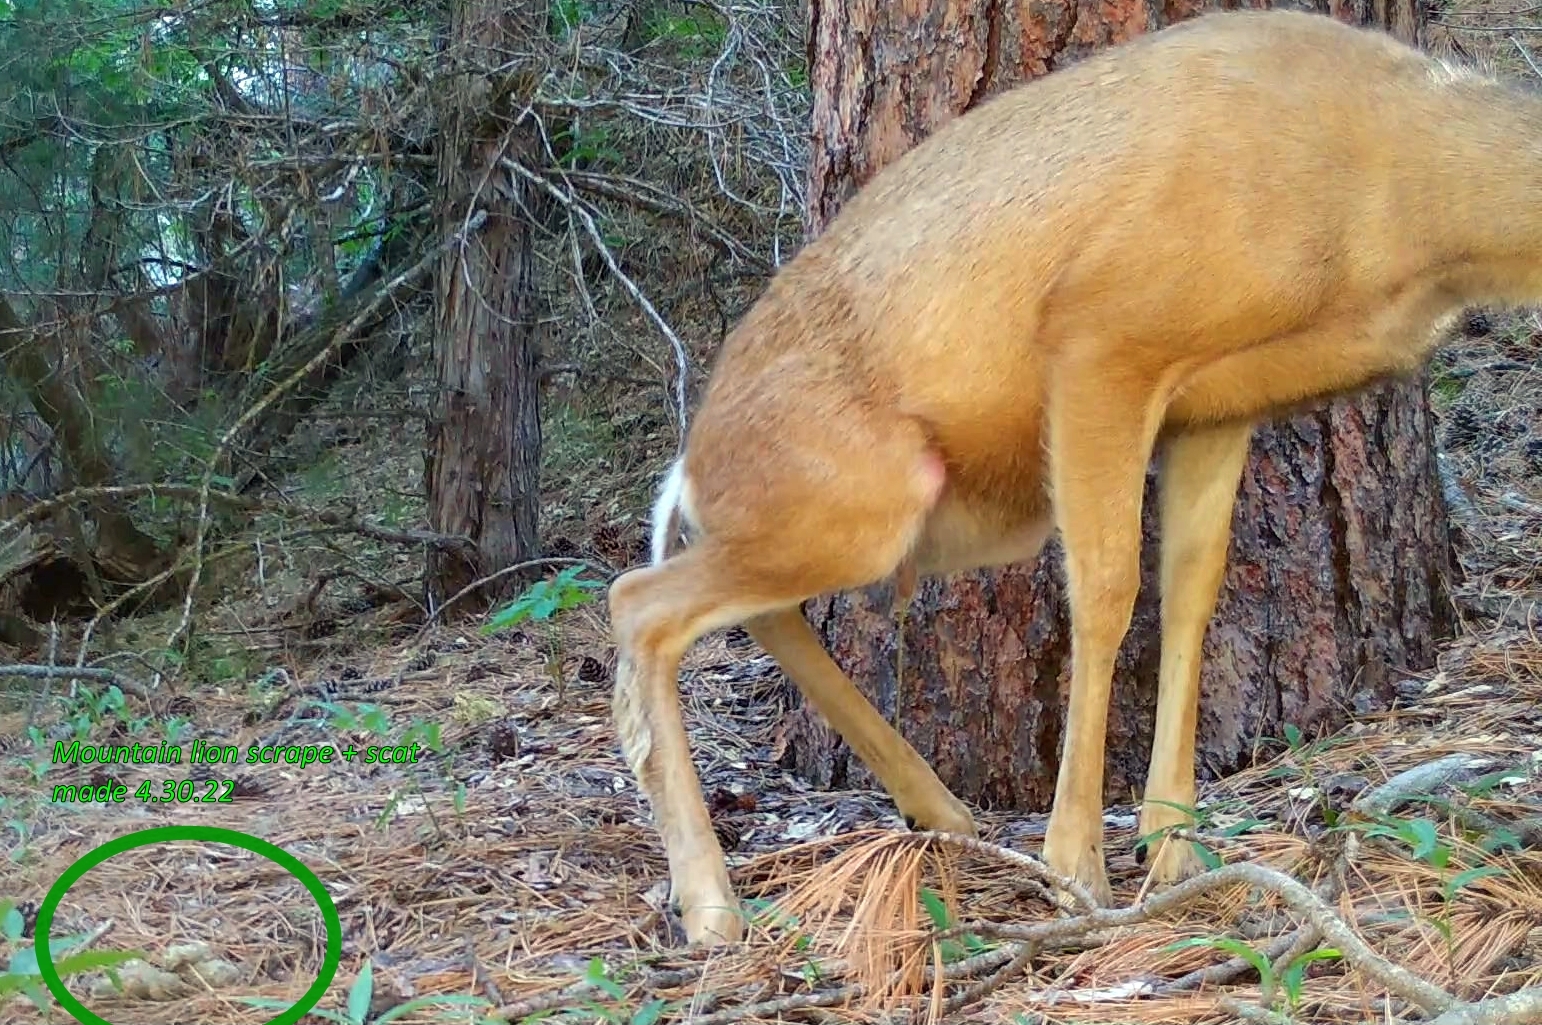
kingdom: Animalia
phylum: Chordata
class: Mammalia
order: Artiodactyla
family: Cervidae
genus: Odocoileus
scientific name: Odocoileus hemionus
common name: Mule deer
